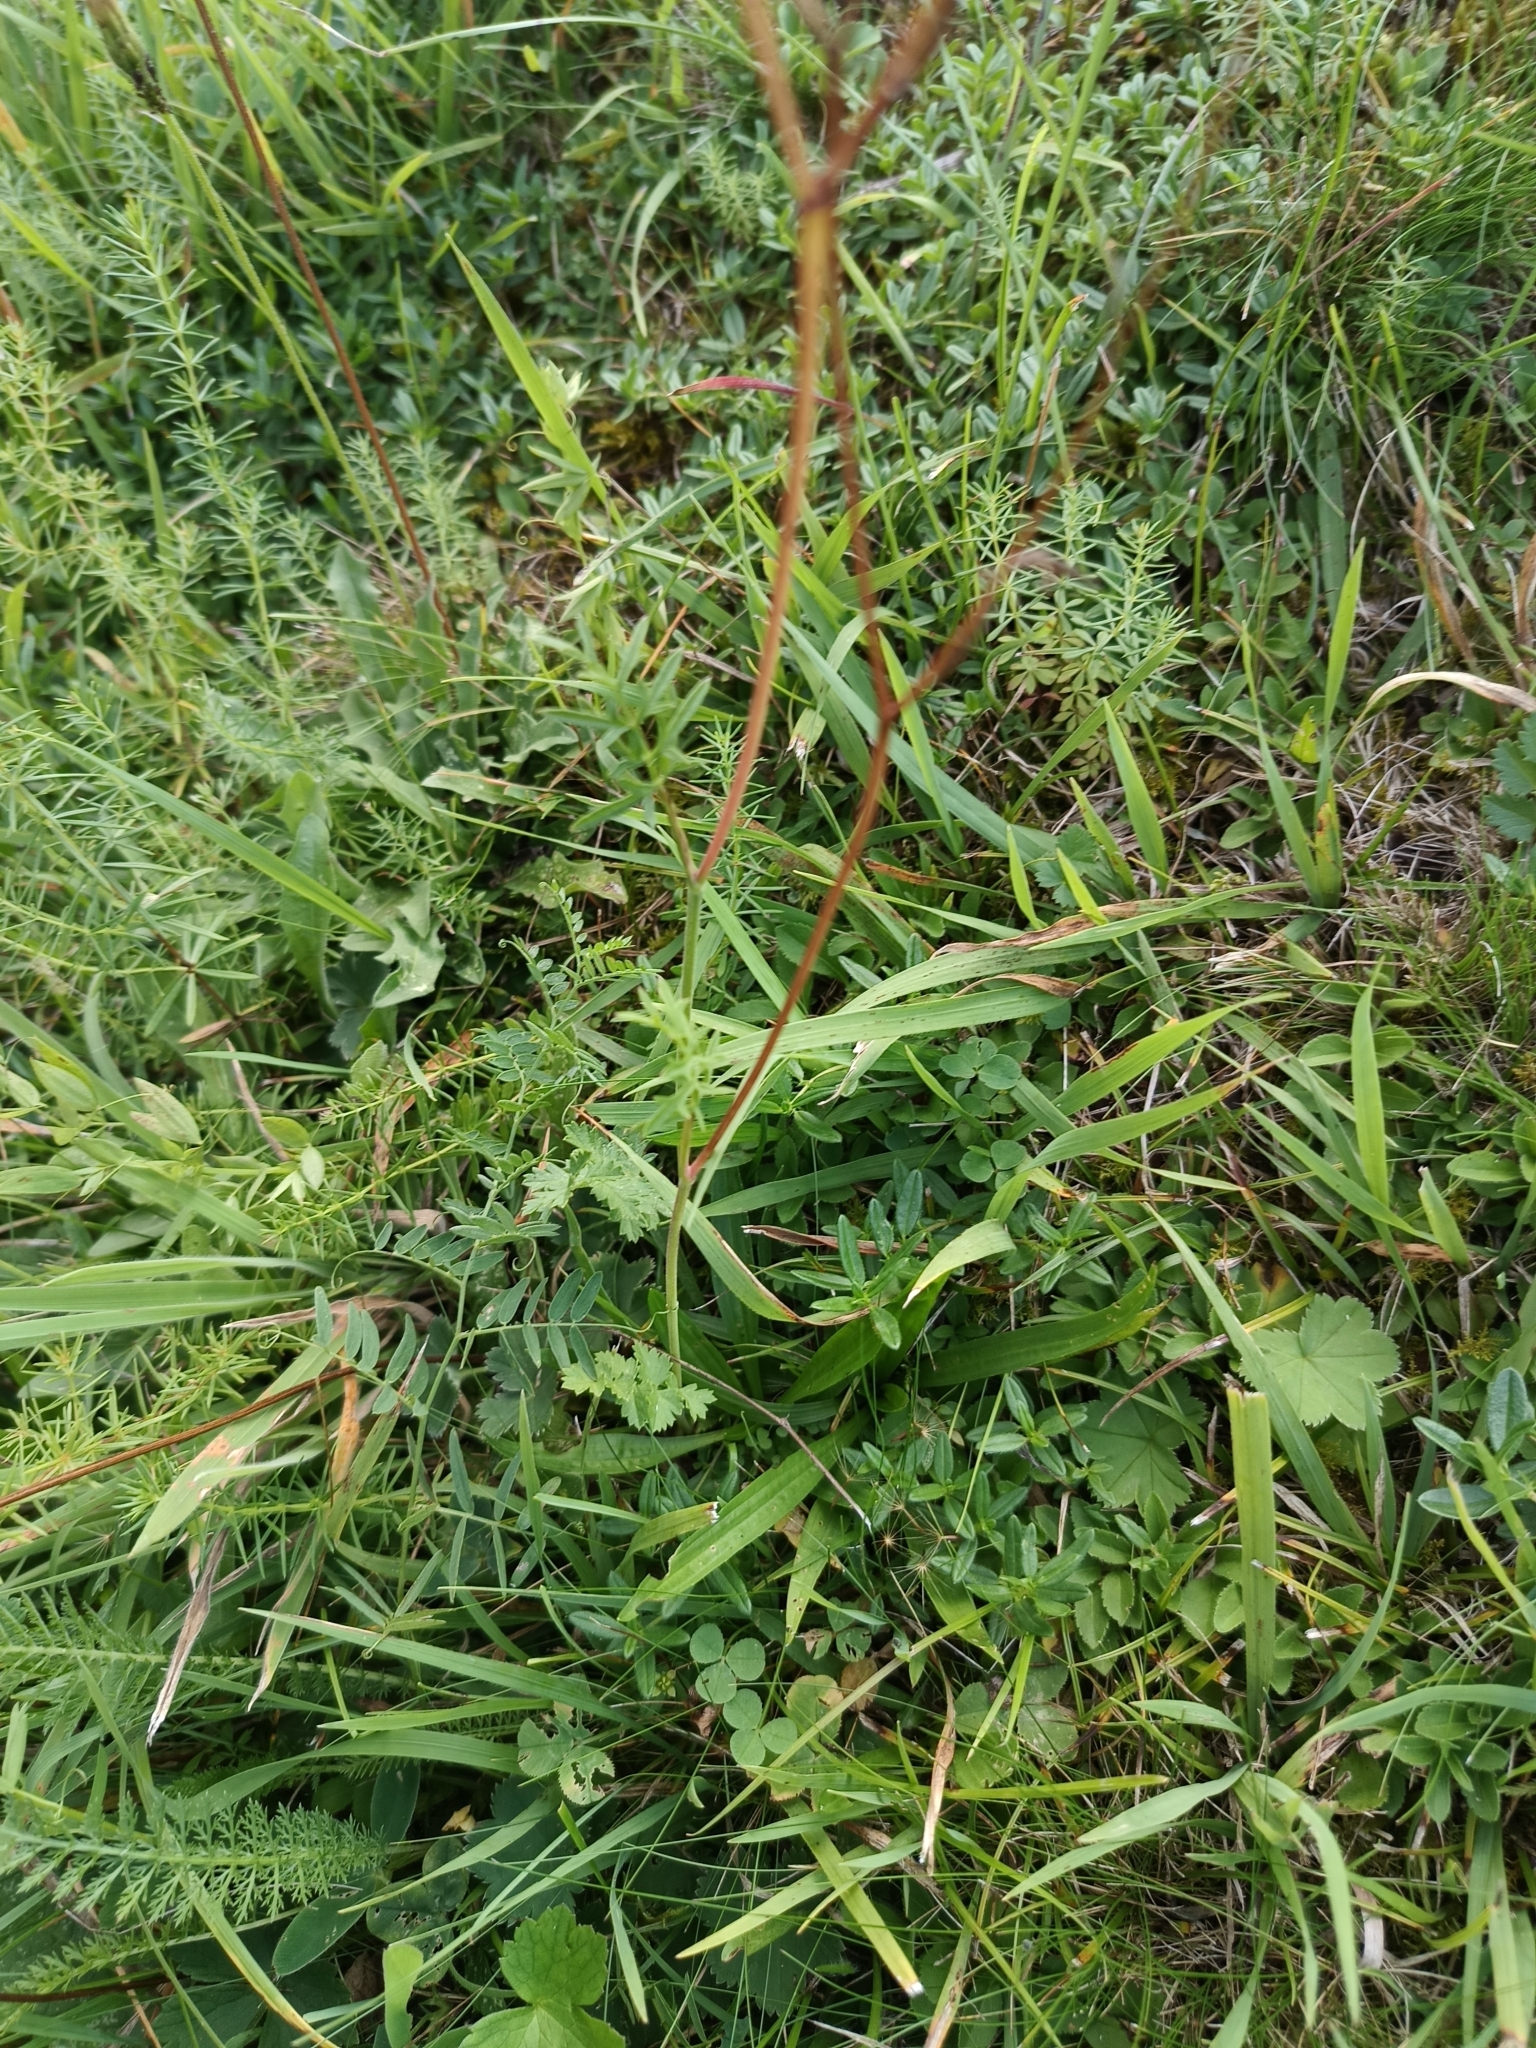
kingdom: Plantae
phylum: Tracheophyta
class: Magnoliopsida
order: Apiales
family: Apiaceae
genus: Pimpinella
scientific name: Pimpinella major
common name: Greater burnet-saxifrage
